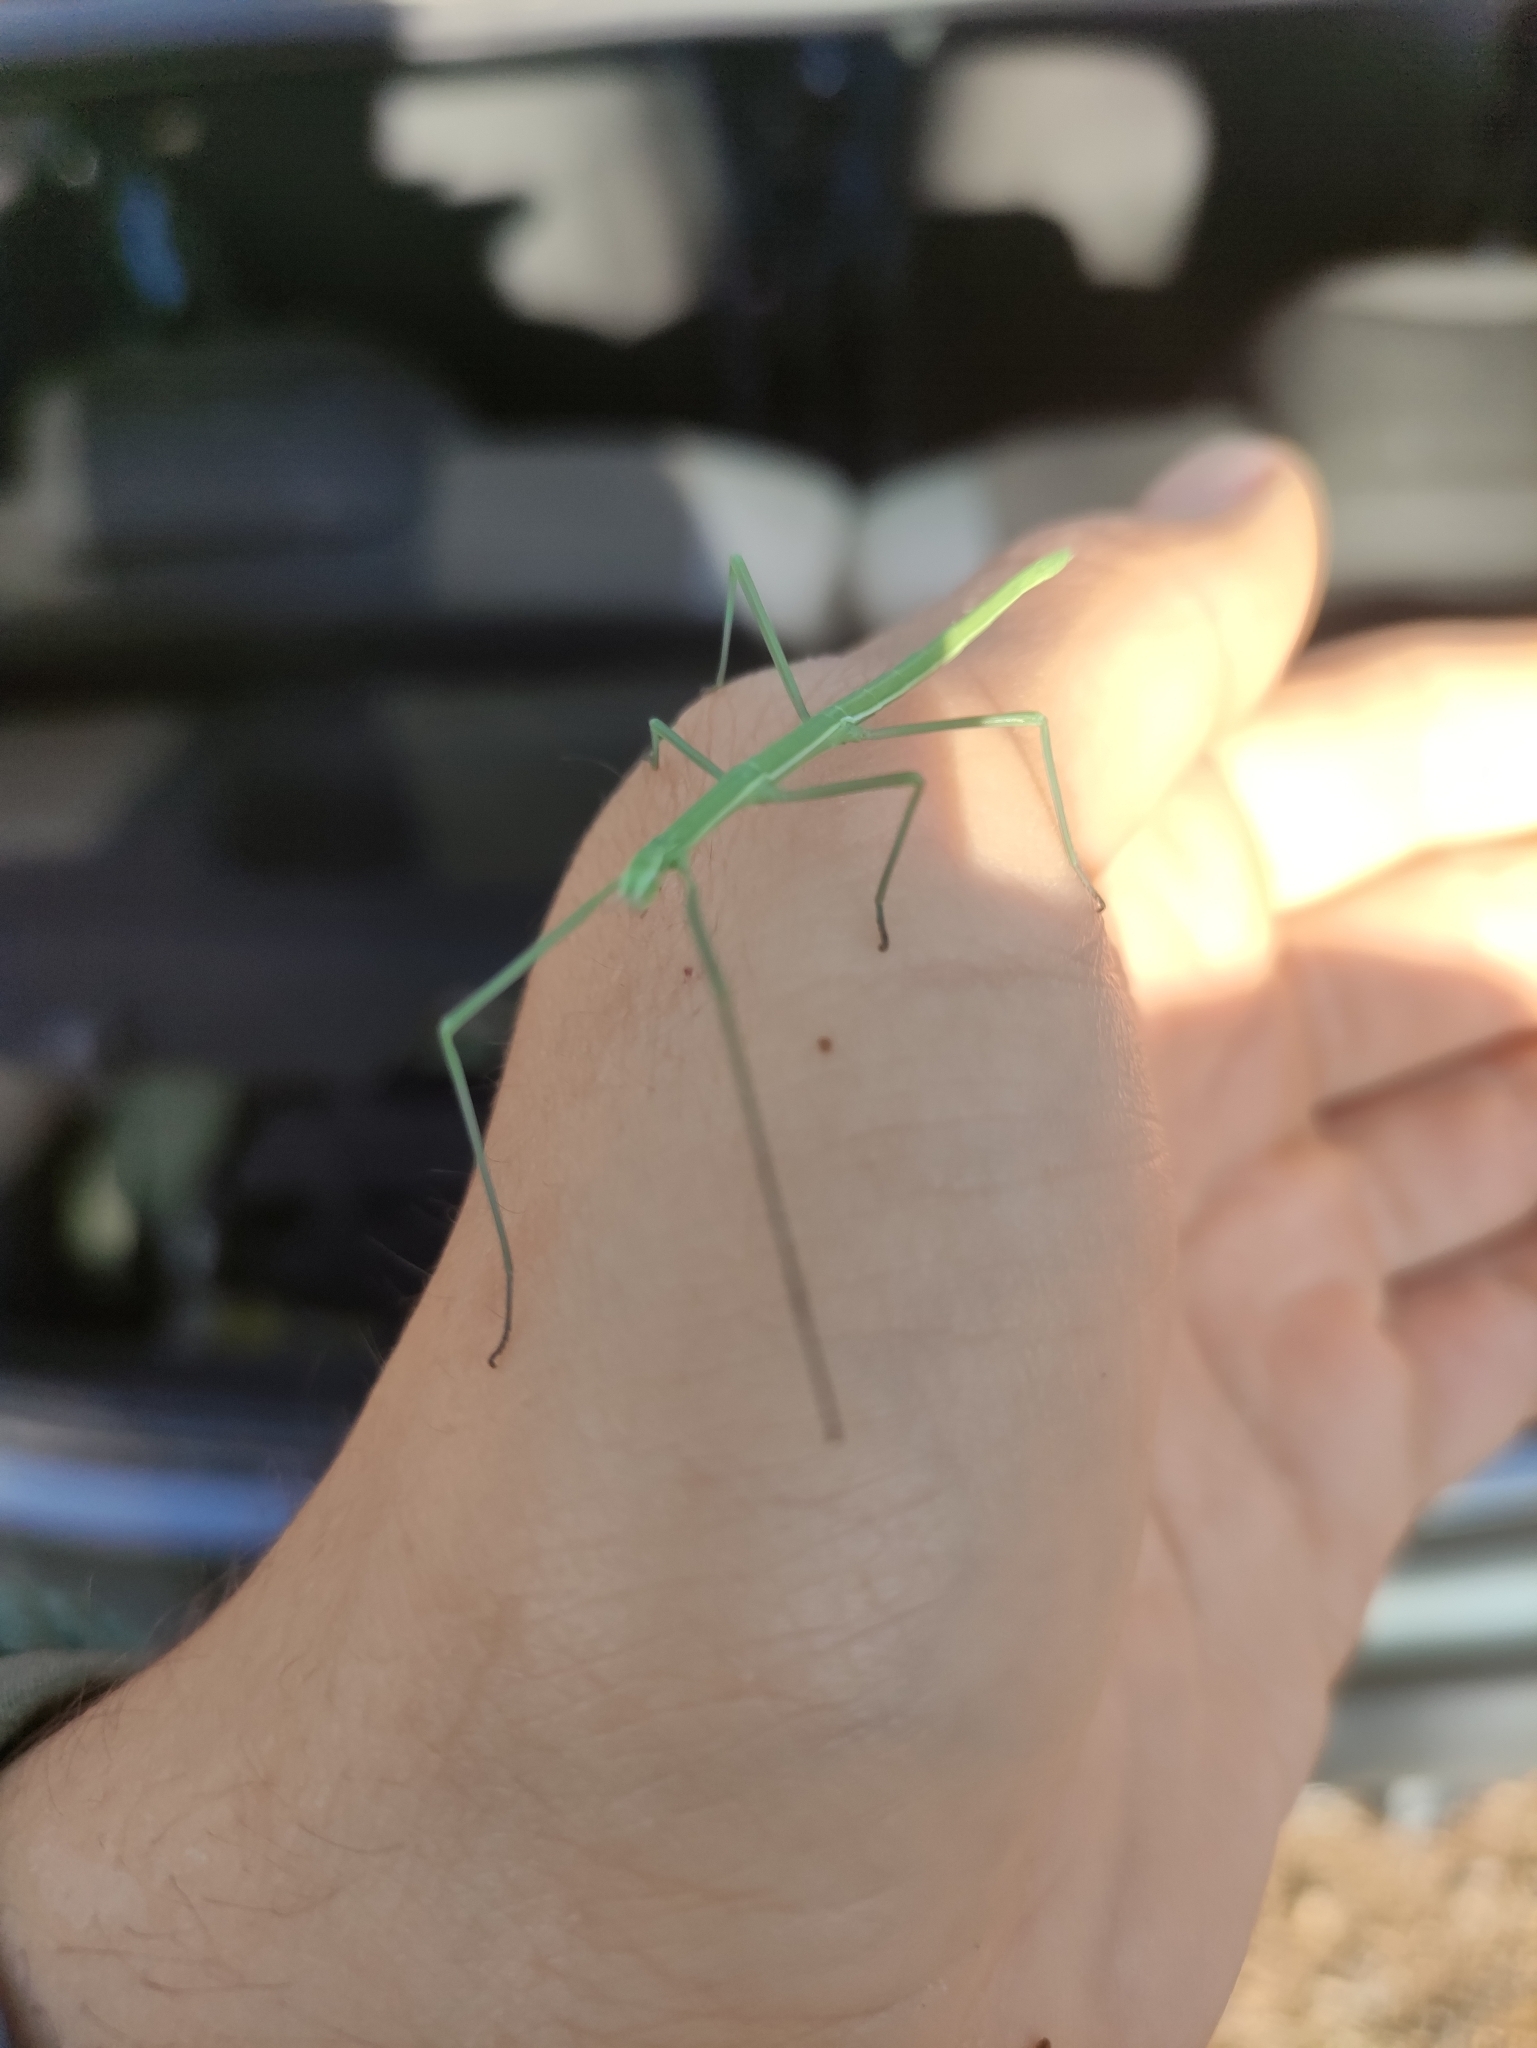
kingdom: Animalia
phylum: Arthropoda
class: Insecta
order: Phasmida
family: Bacillidae
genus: Pijnackeria
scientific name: Pijnackeria masettii
